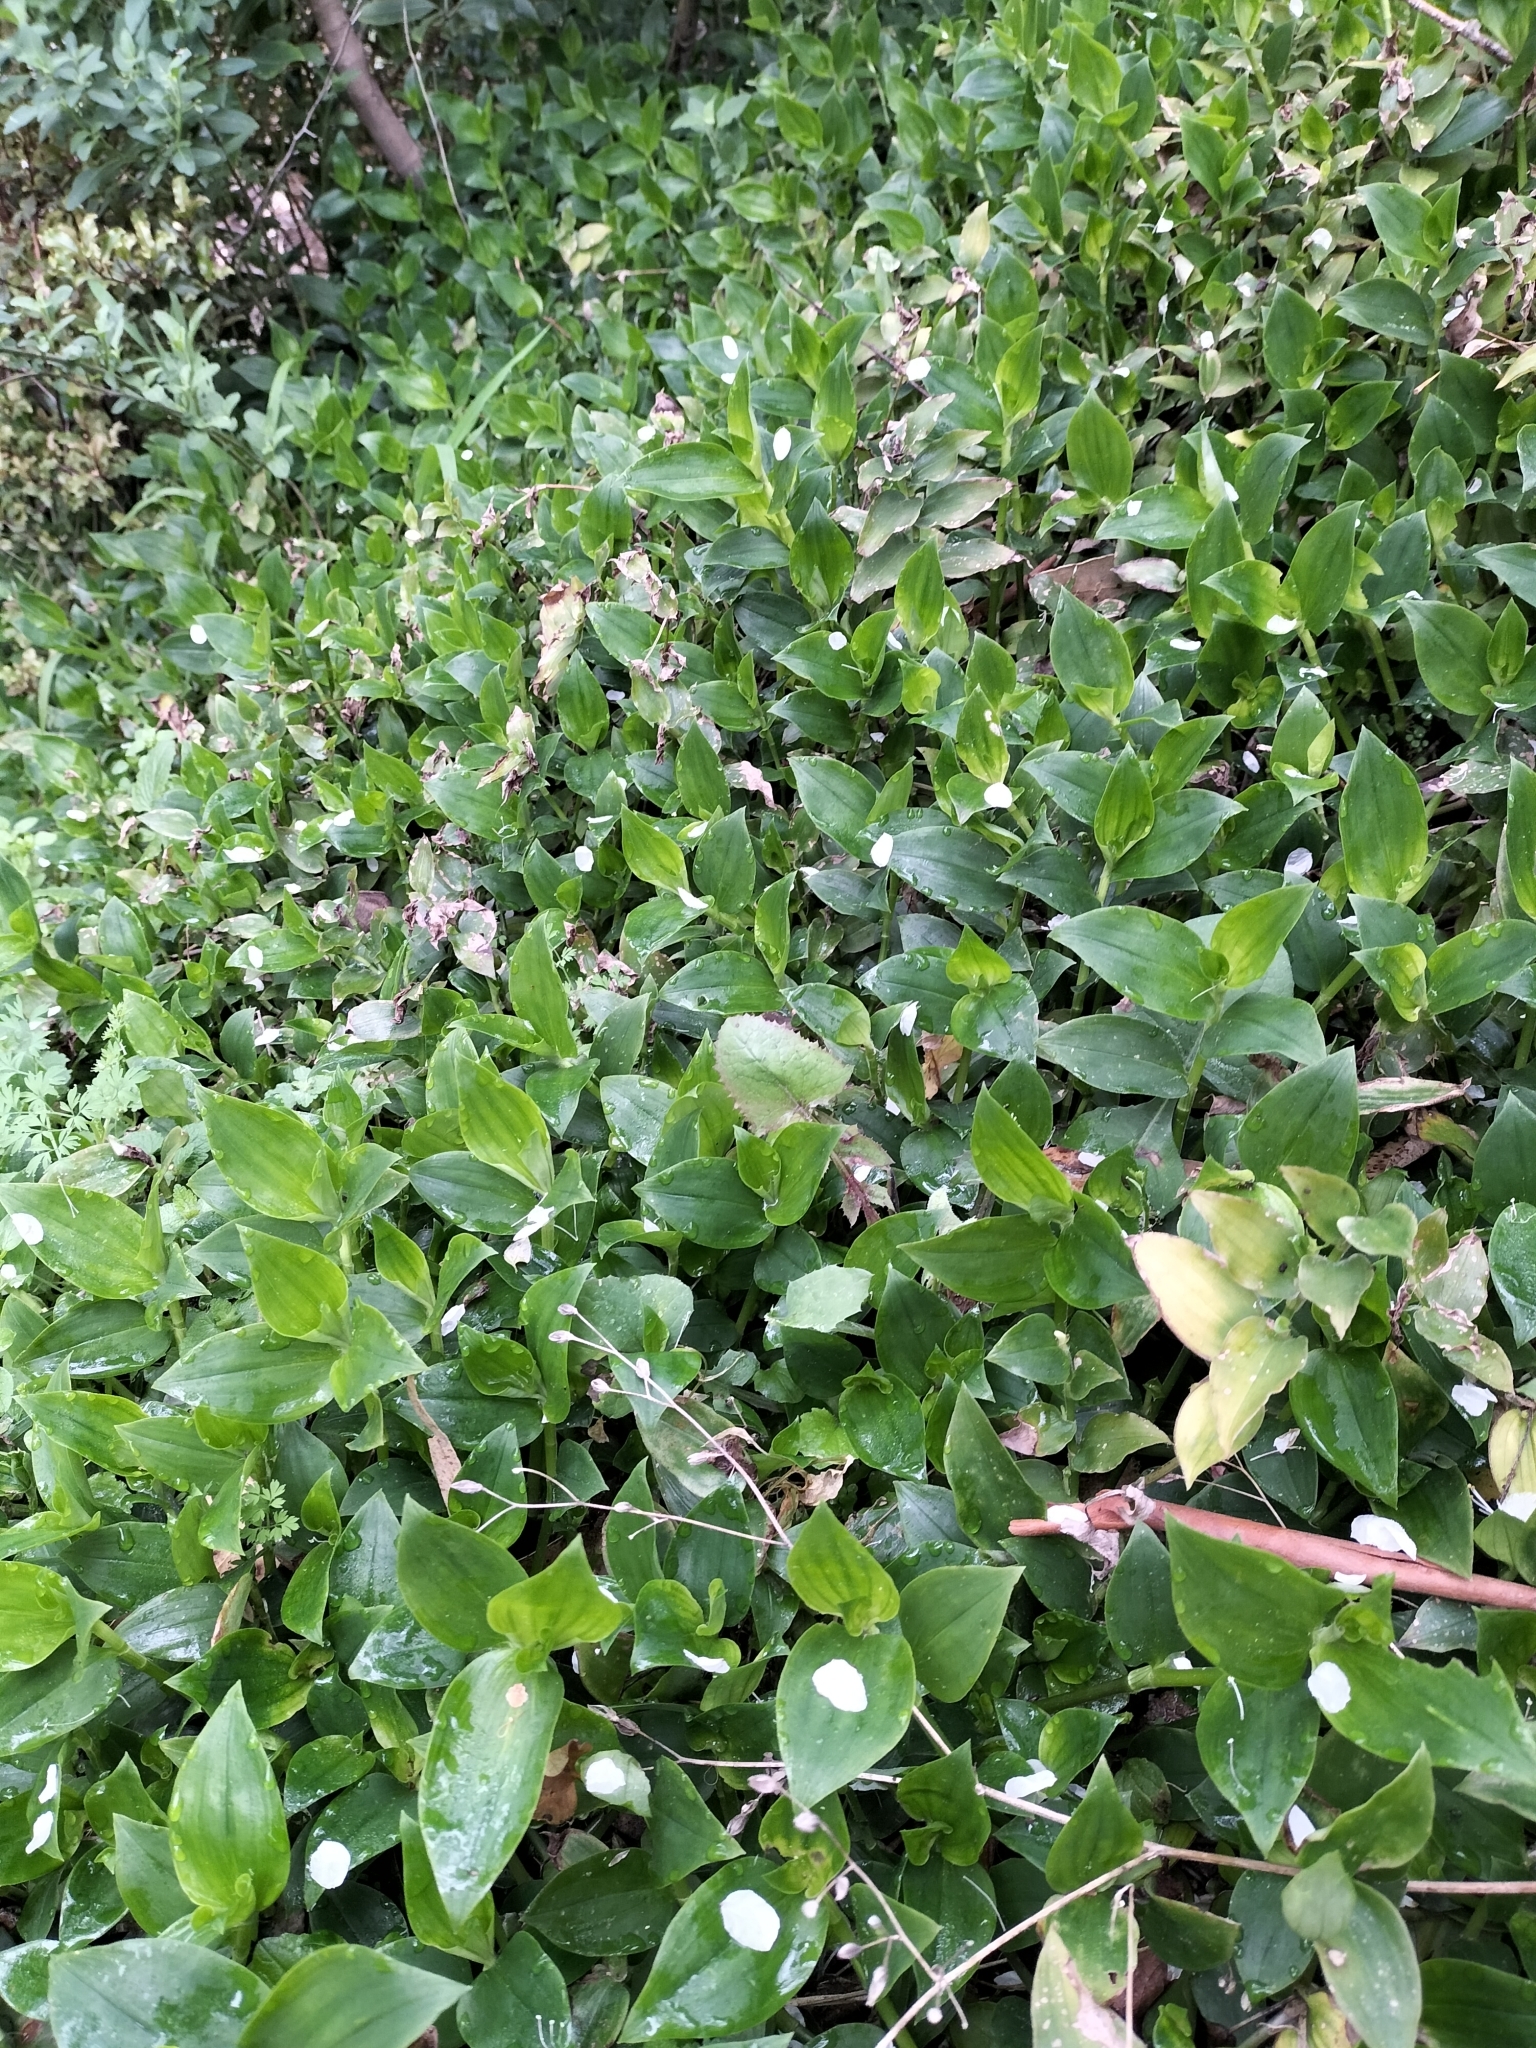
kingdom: Plantae
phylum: Tracheophyta
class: Liliopsida
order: Commelinales
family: Commelinaceae
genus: Tradescantia
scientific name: Tradescantia fluminensis
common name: Wandering-jew
